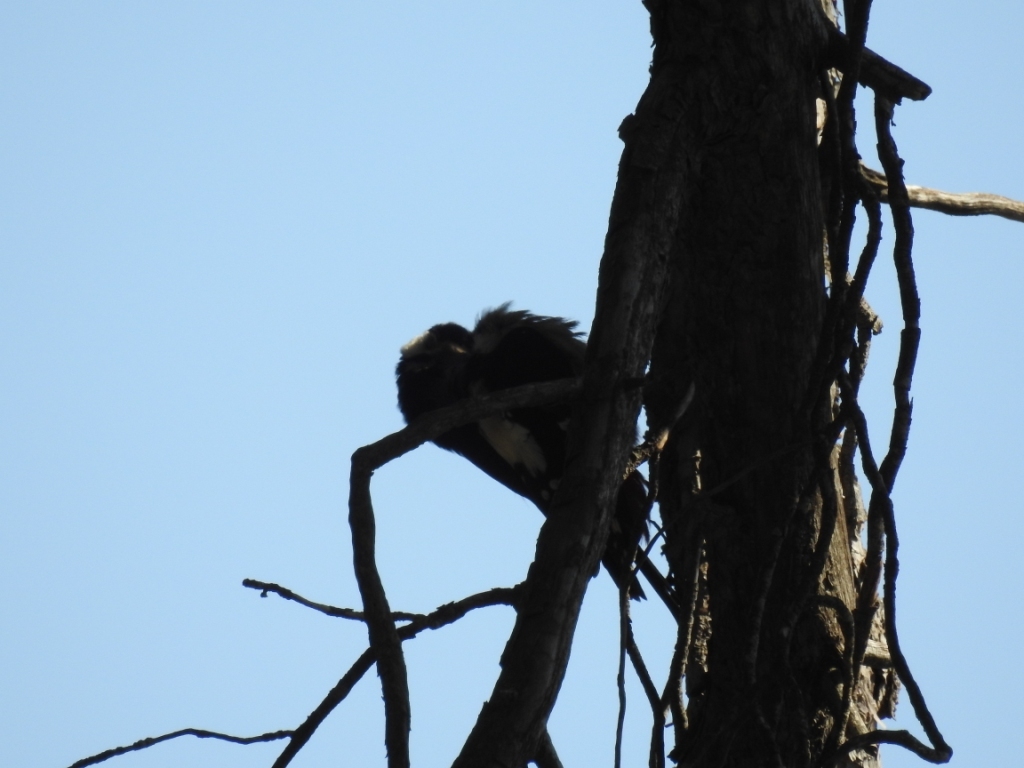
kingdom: Animalia
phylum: Chordata
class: Aves
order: Piciformes
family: Picidae
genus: Dendrocopos
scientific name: Dendrocopos major
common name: Great spotted woodpecker
